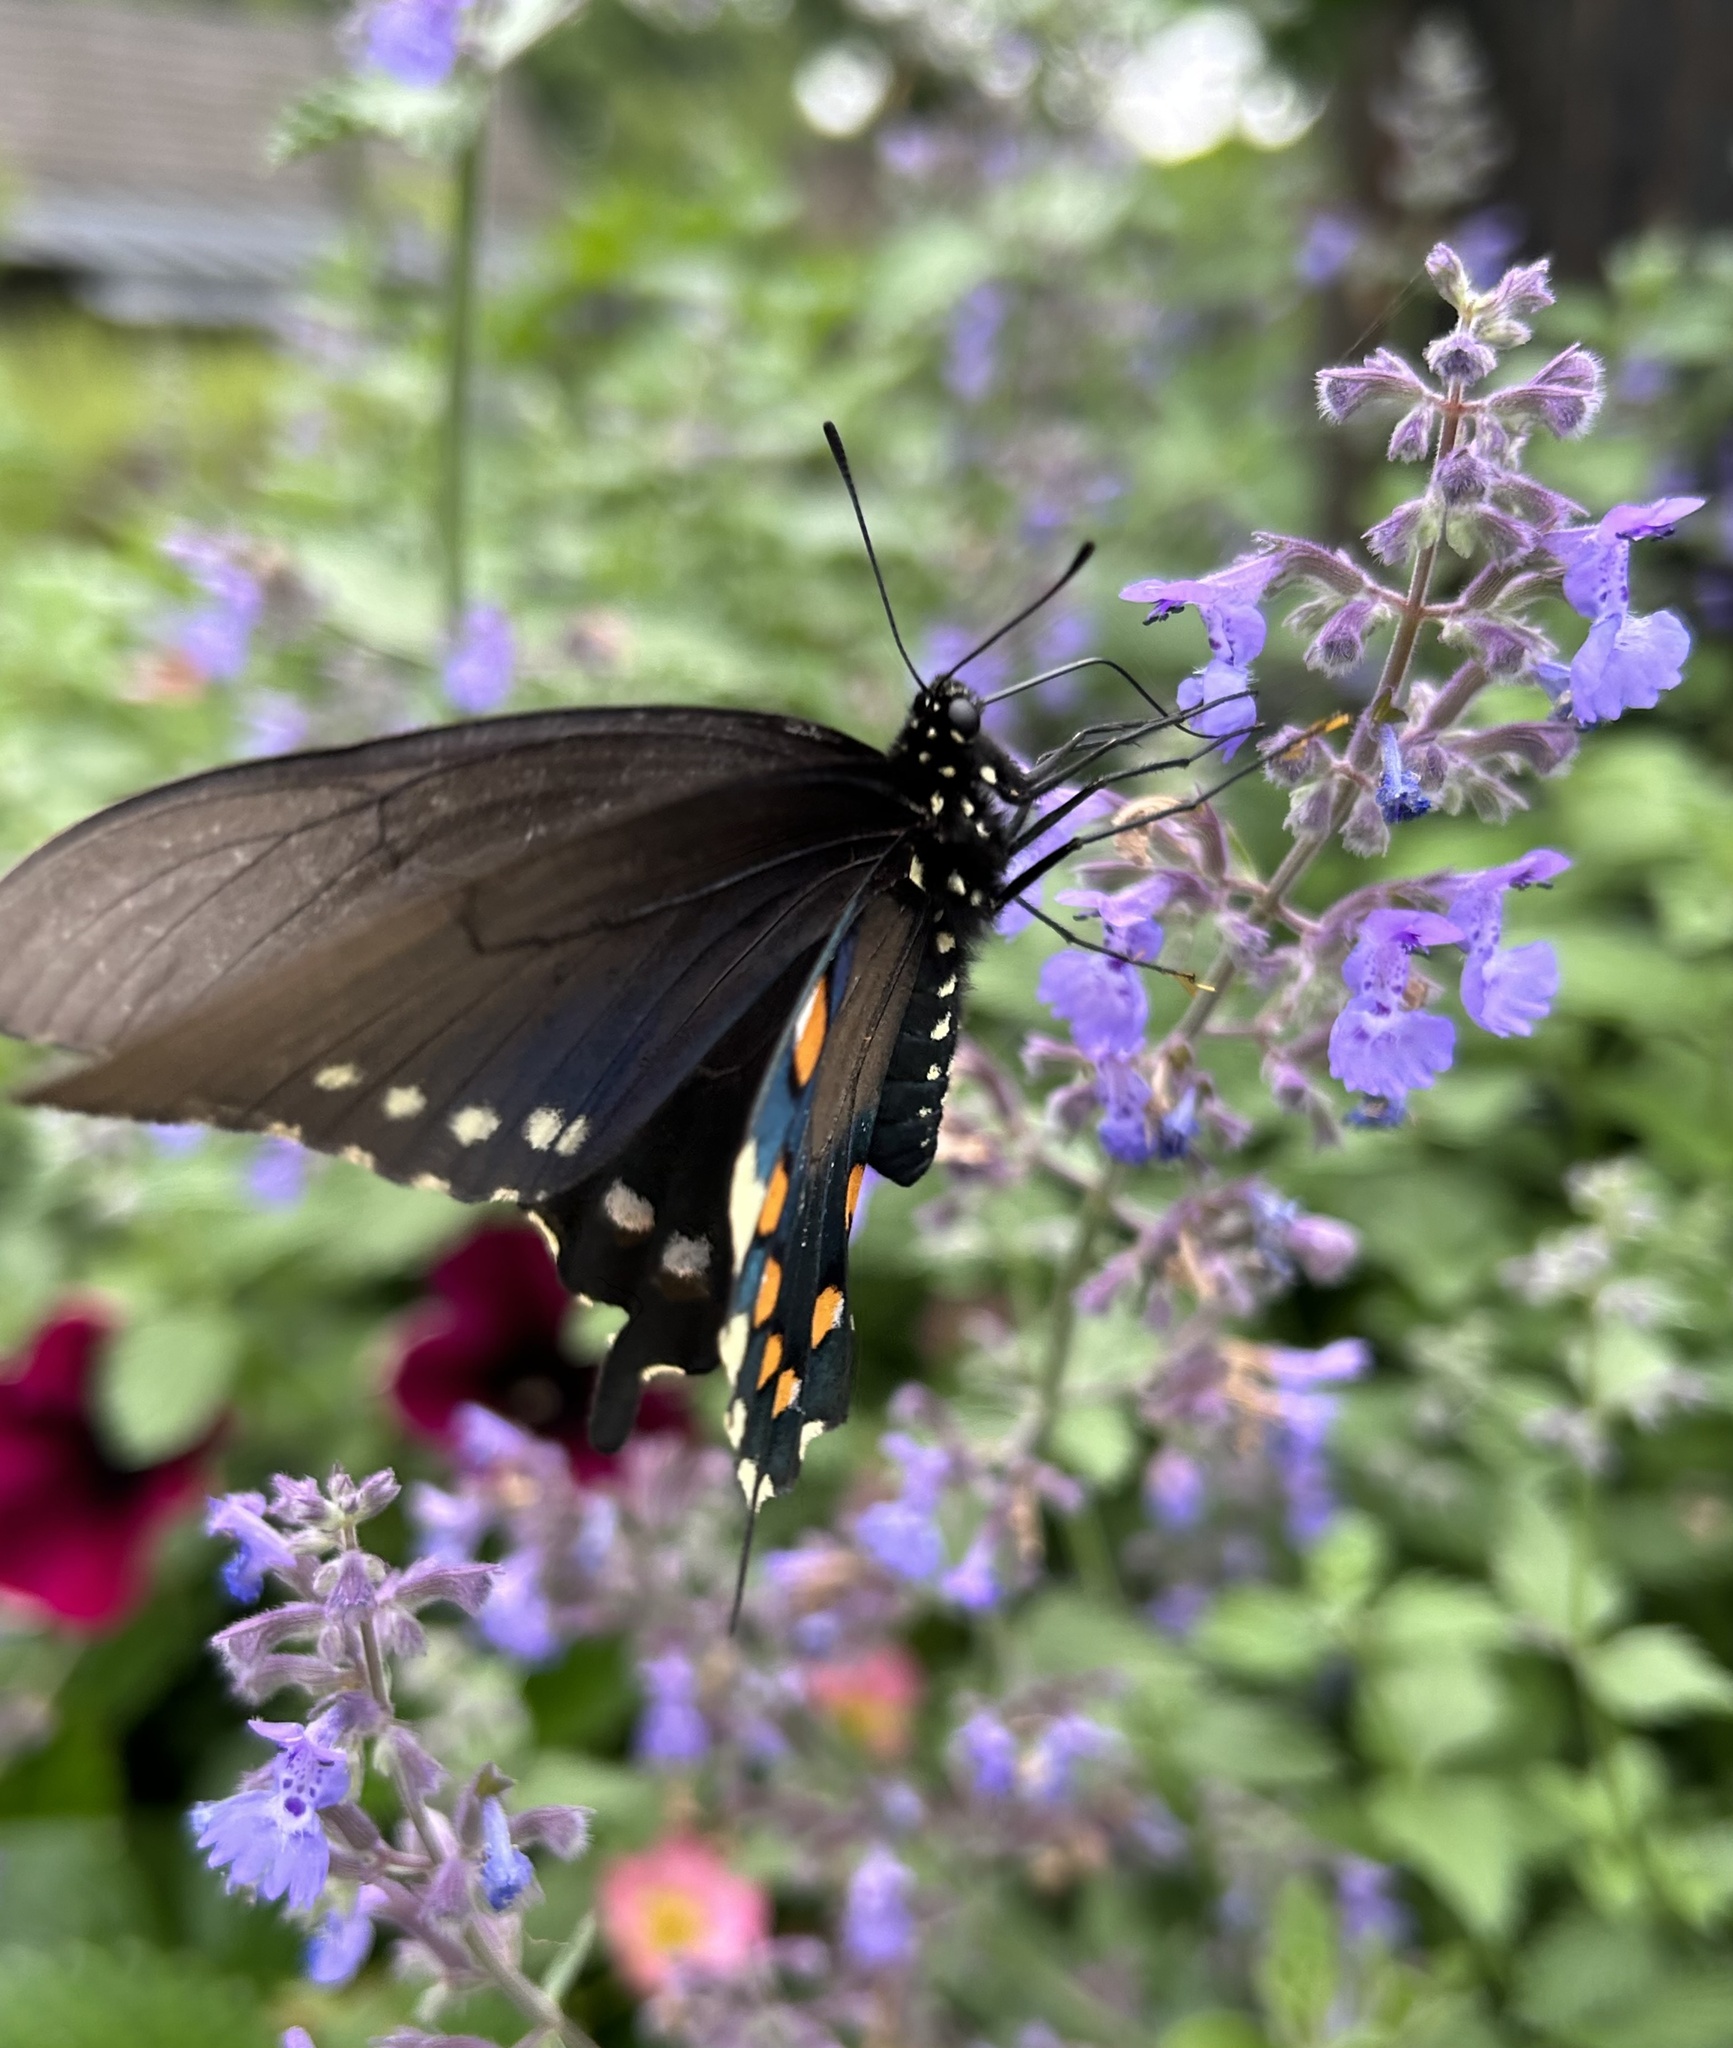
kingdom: Animalia
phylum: Arthropoda
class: Insecta
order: Lepidoptera
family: Papilionidae
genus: Battus
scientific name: Battus philenor
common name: Pipevine swallowtail
